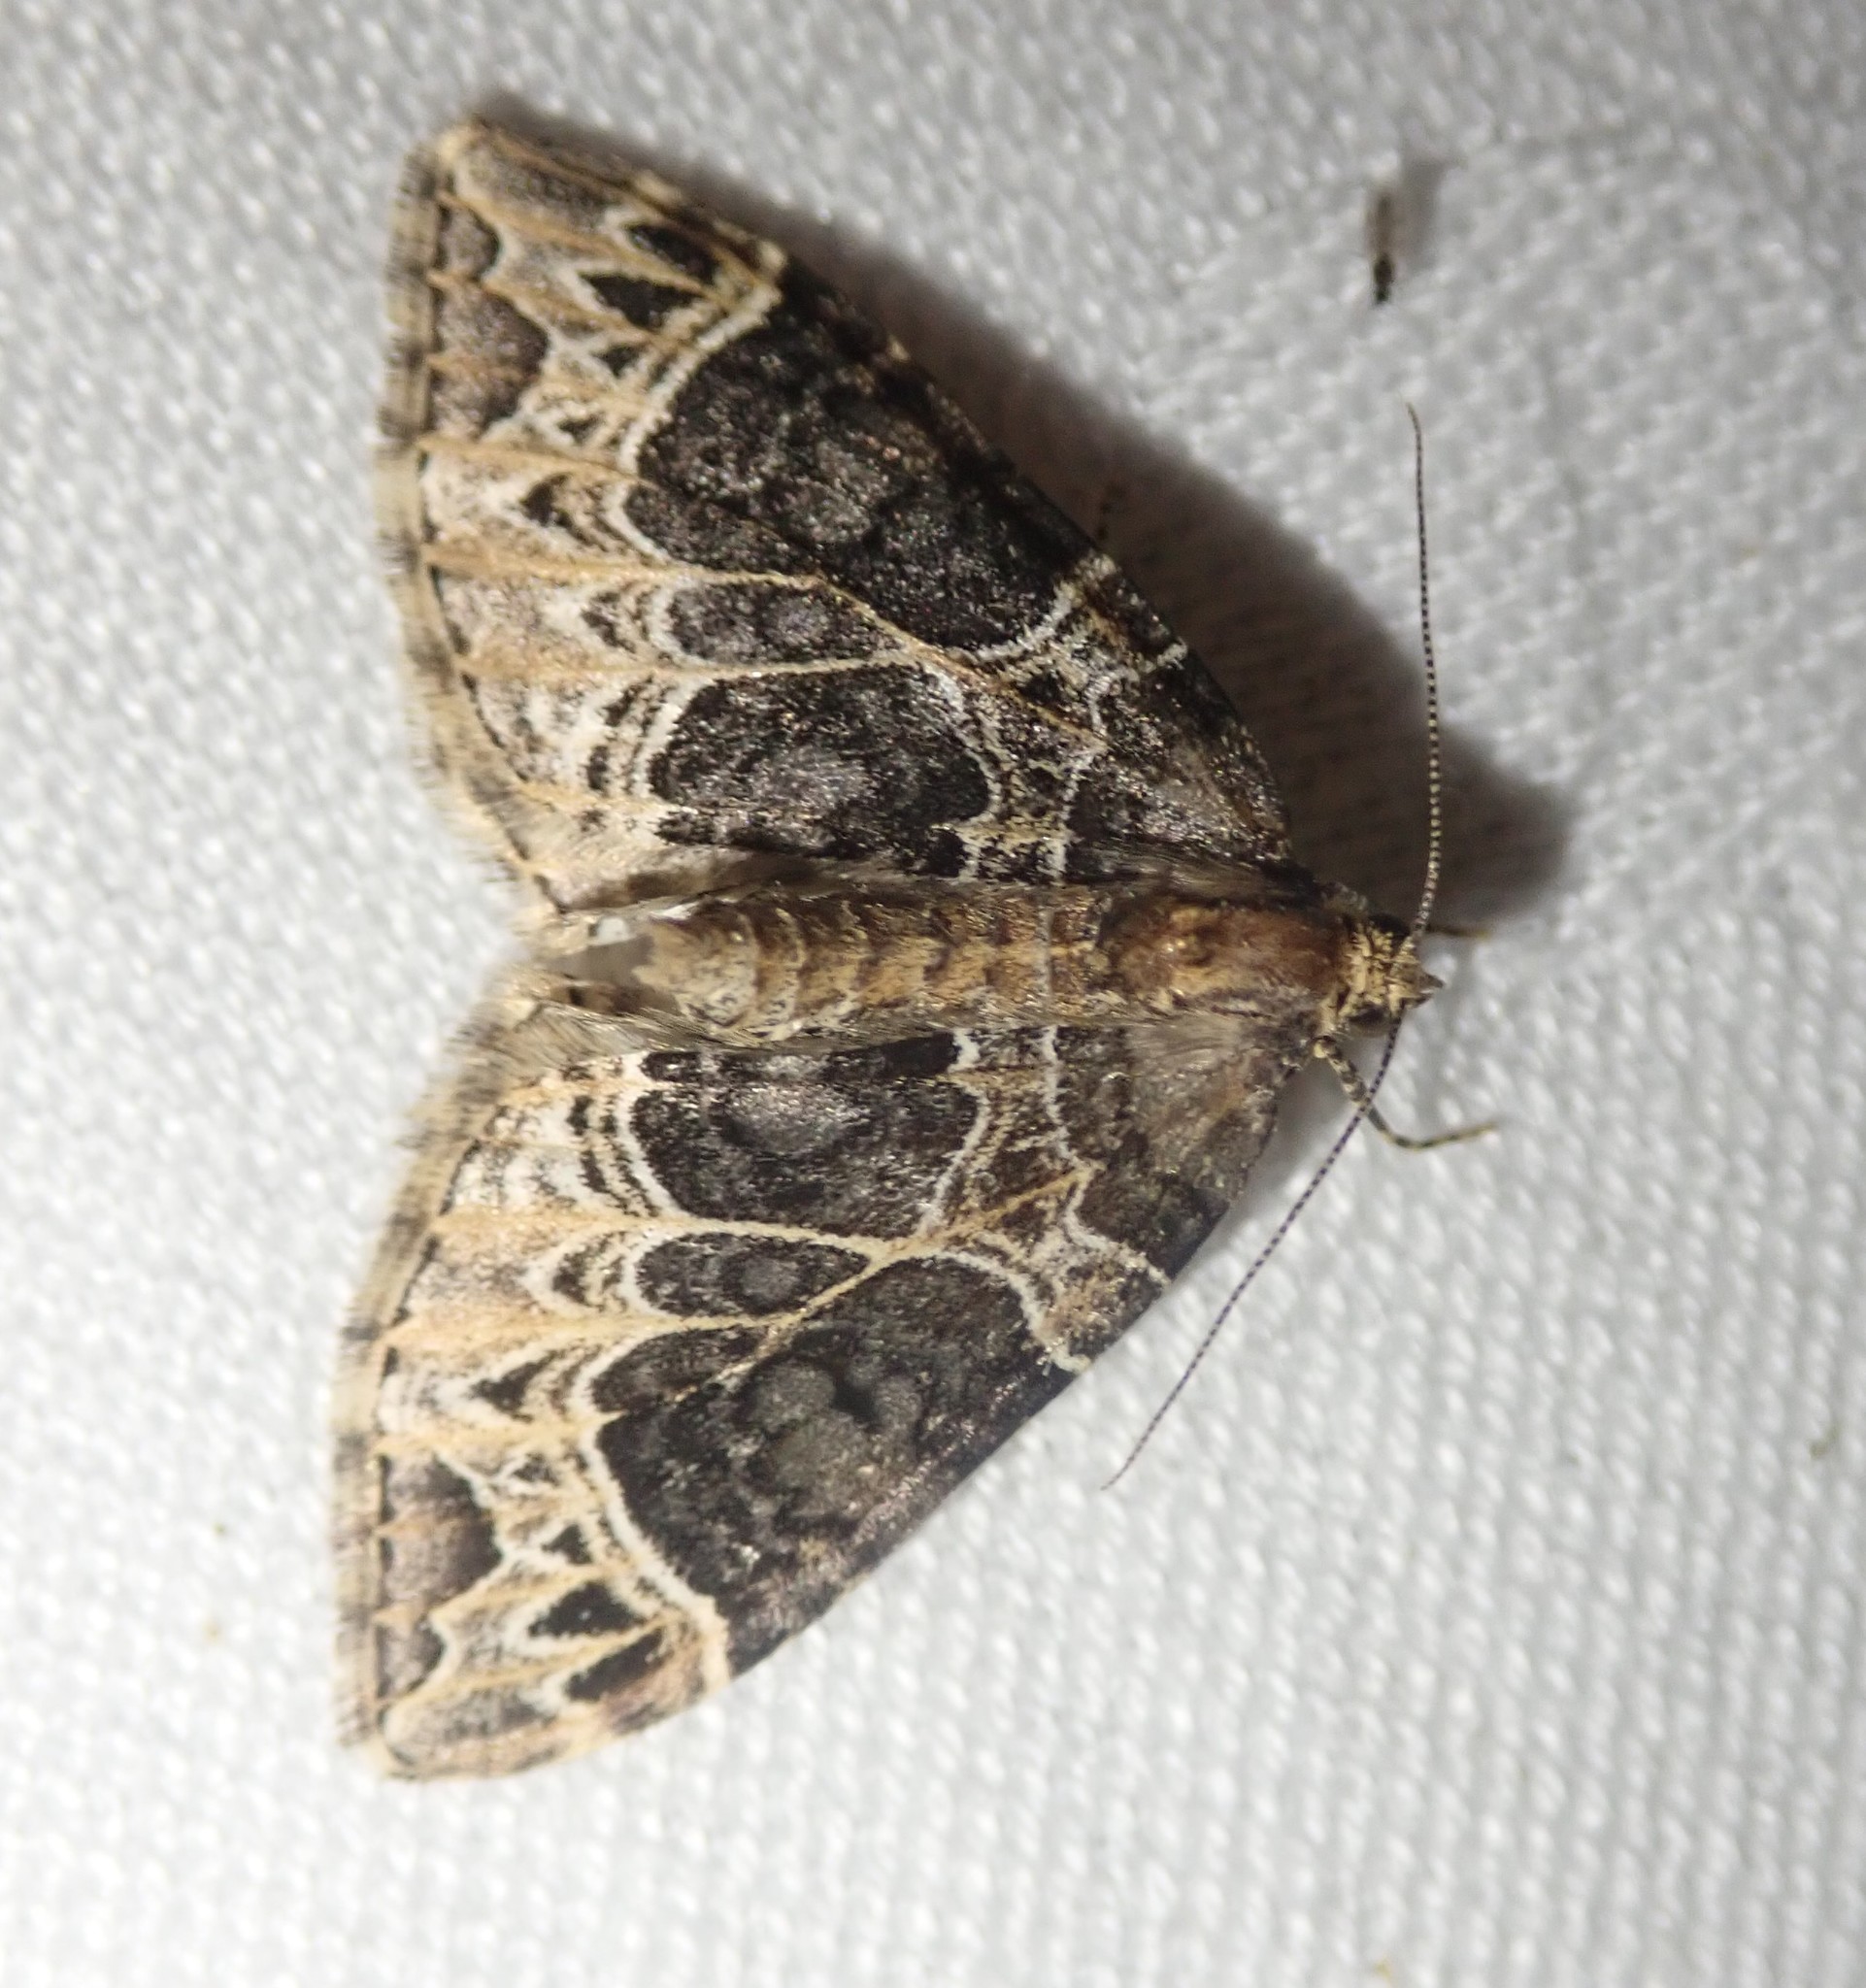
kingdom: Animalia
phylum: Arthropoda
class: Insecta
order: Lepidoptera
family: Geometridae
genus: Ecliptopera
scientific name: Ecliptopera silaceata
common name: Small phoenix
